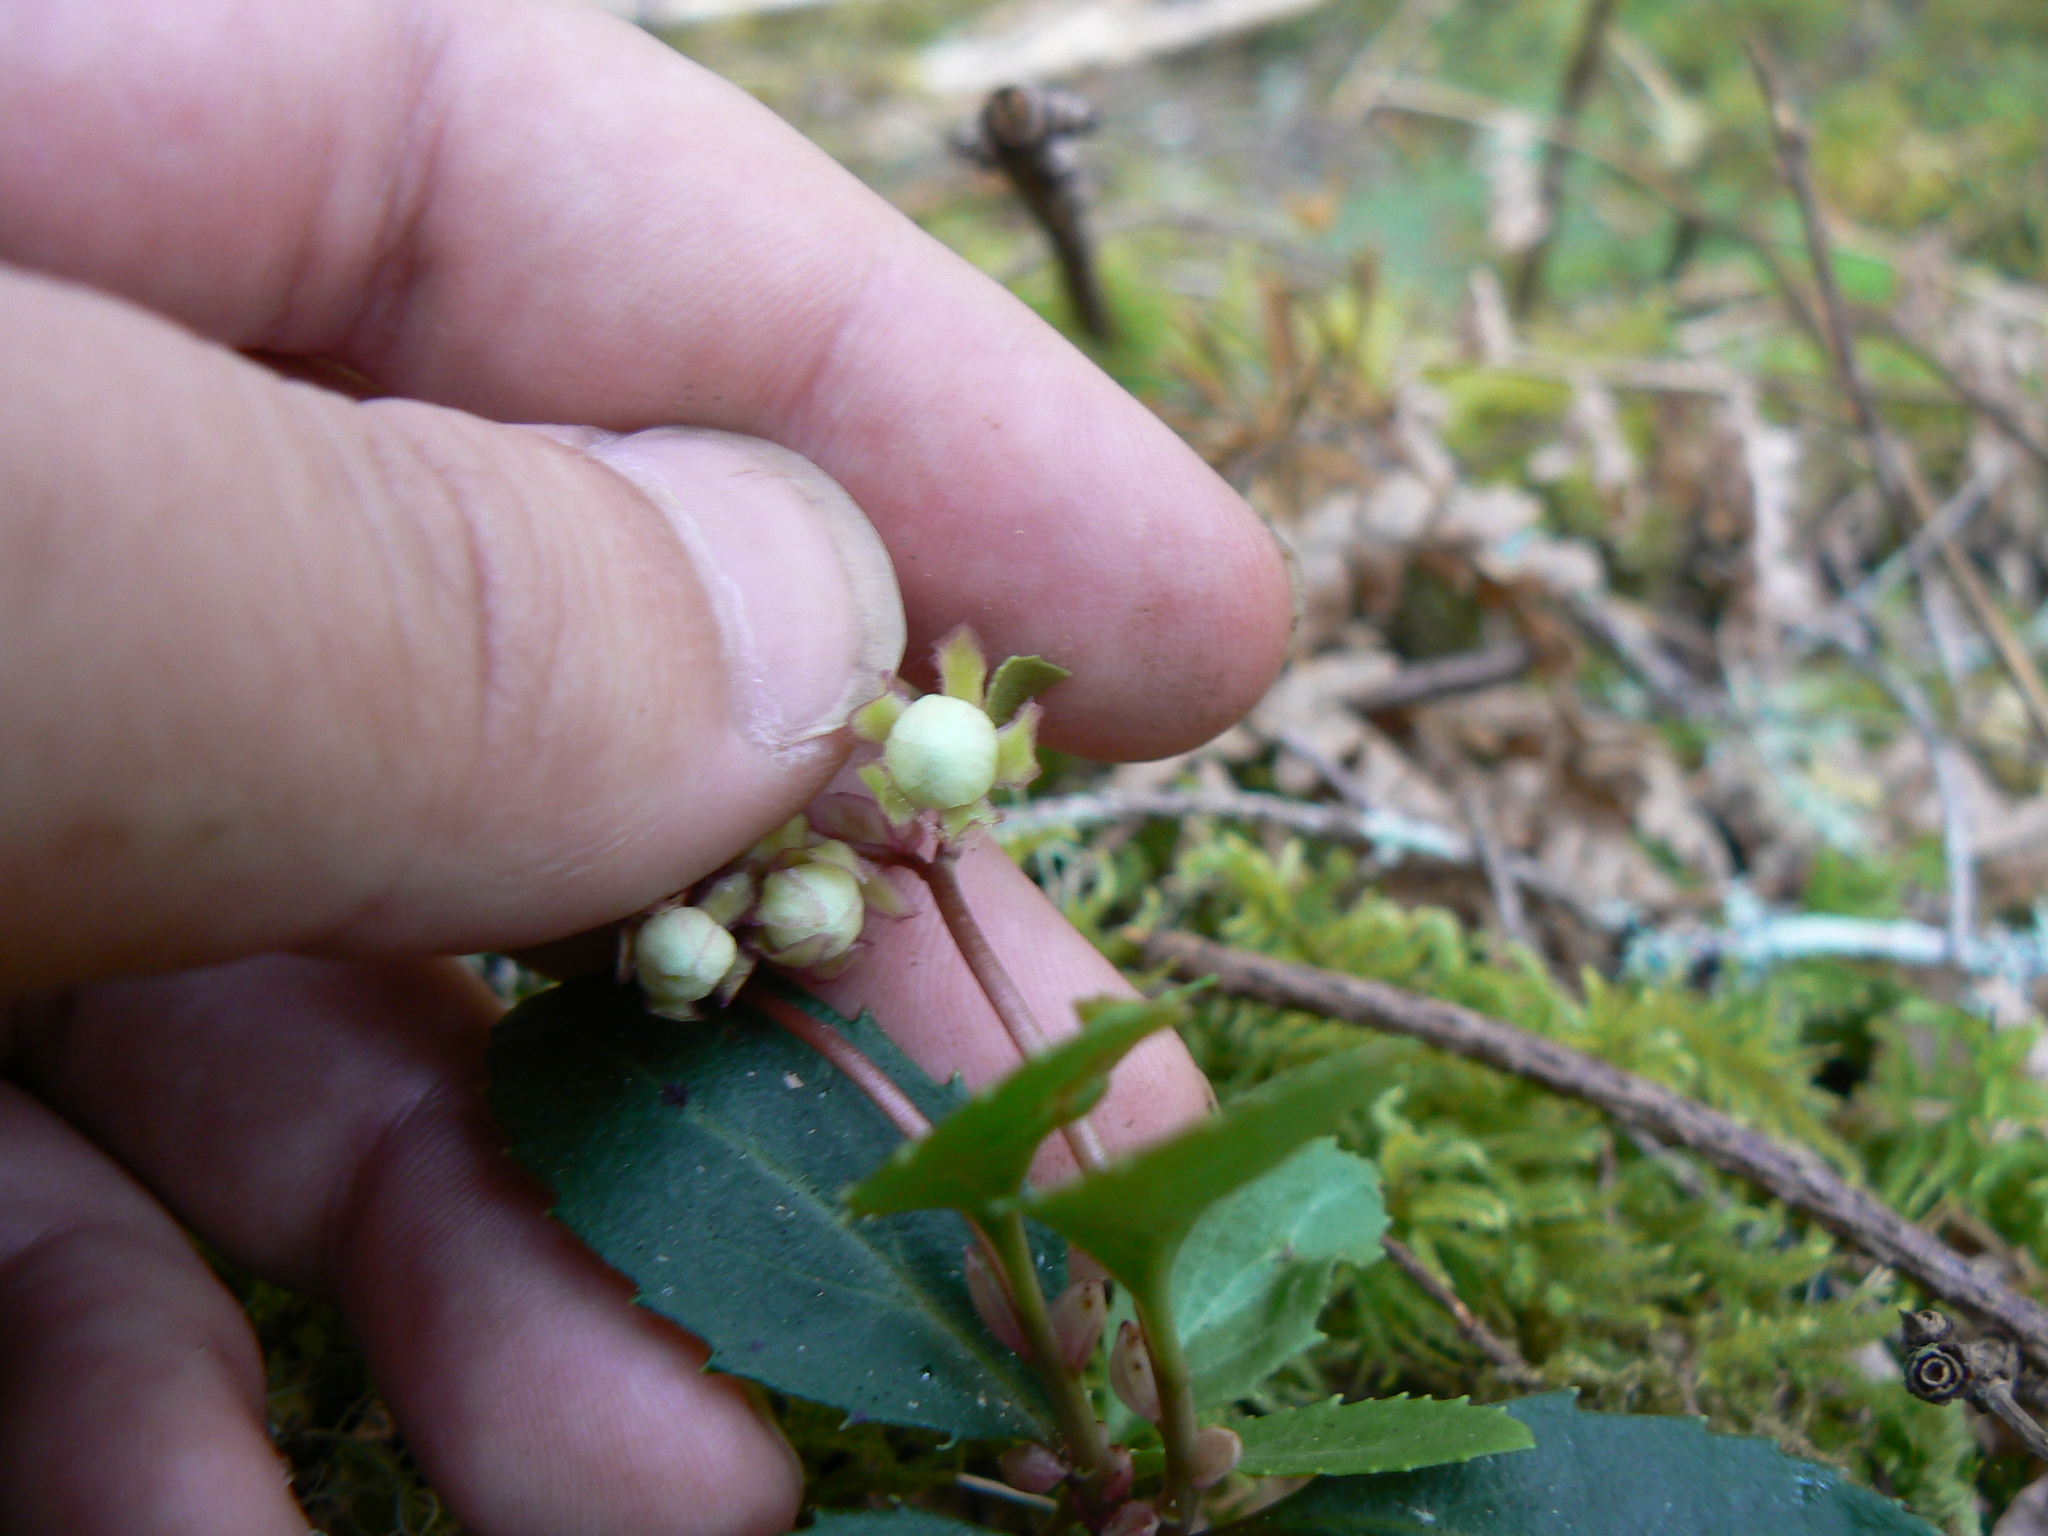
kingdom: Plantae
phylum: Tracheophyta
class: Magnoliopsida
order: Ericales
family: Ericaceae
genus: Chimaphila
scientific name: Chimaphila menziesii
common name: Menzies' pipsissewa
